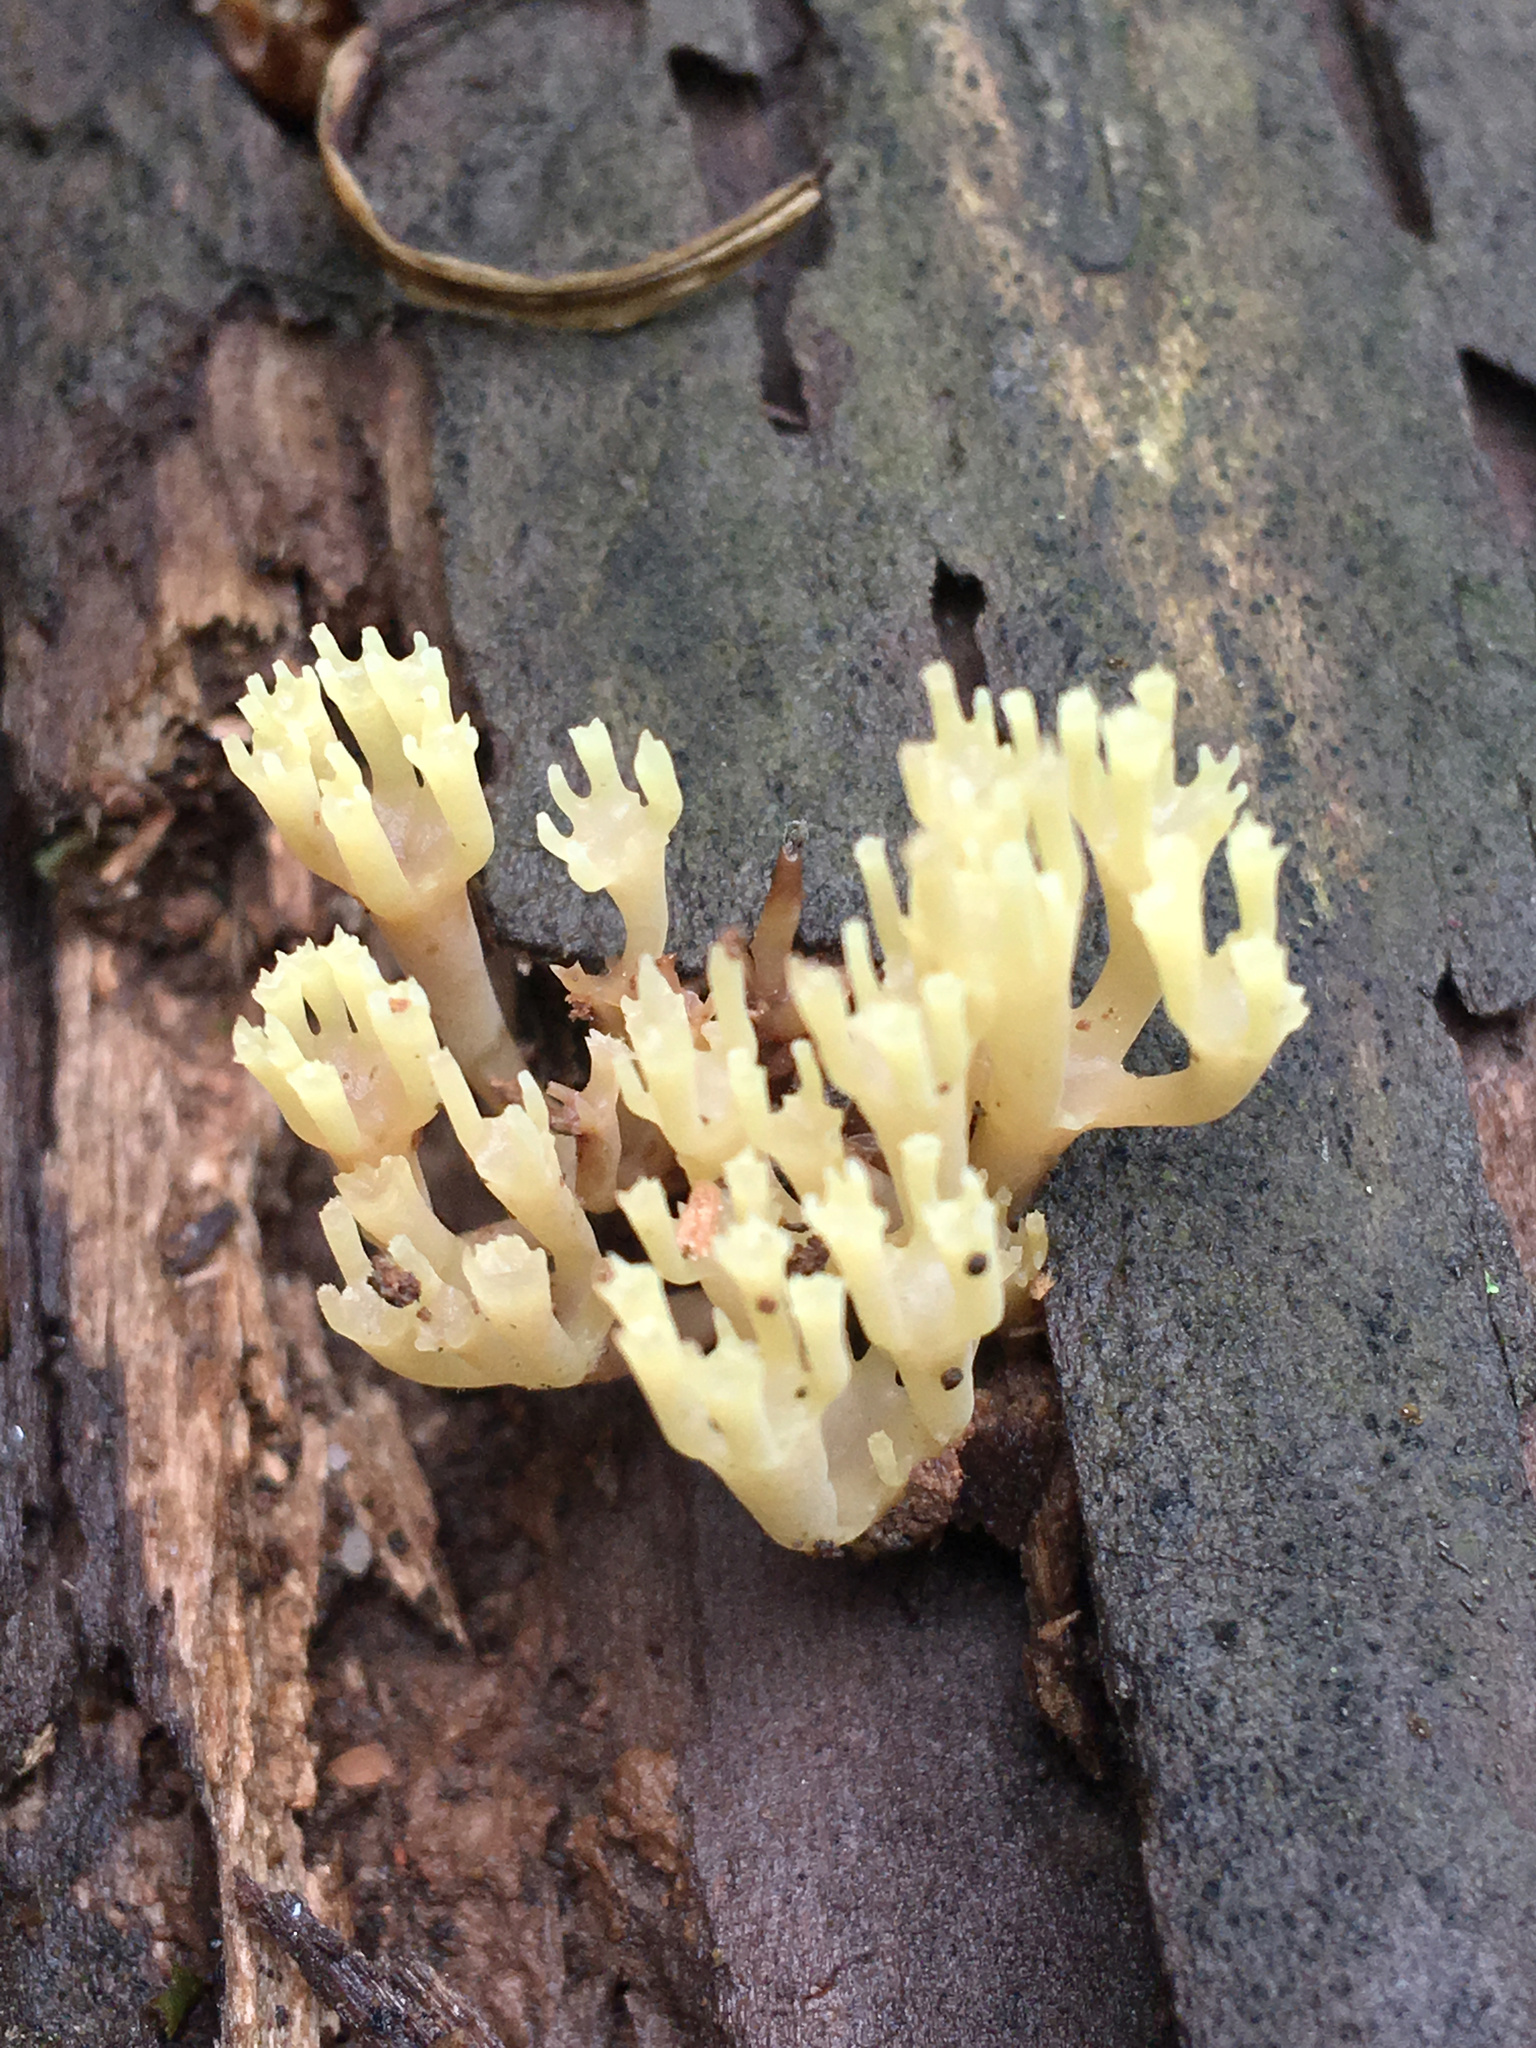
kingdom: Fungi
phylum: Basidiomycota
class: Agaricomycetes
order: Russulales
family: Auriscalpiaceae
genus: Artomyces
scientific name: Artomyces pyxidatus
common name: Crown-tipped coral fungus
